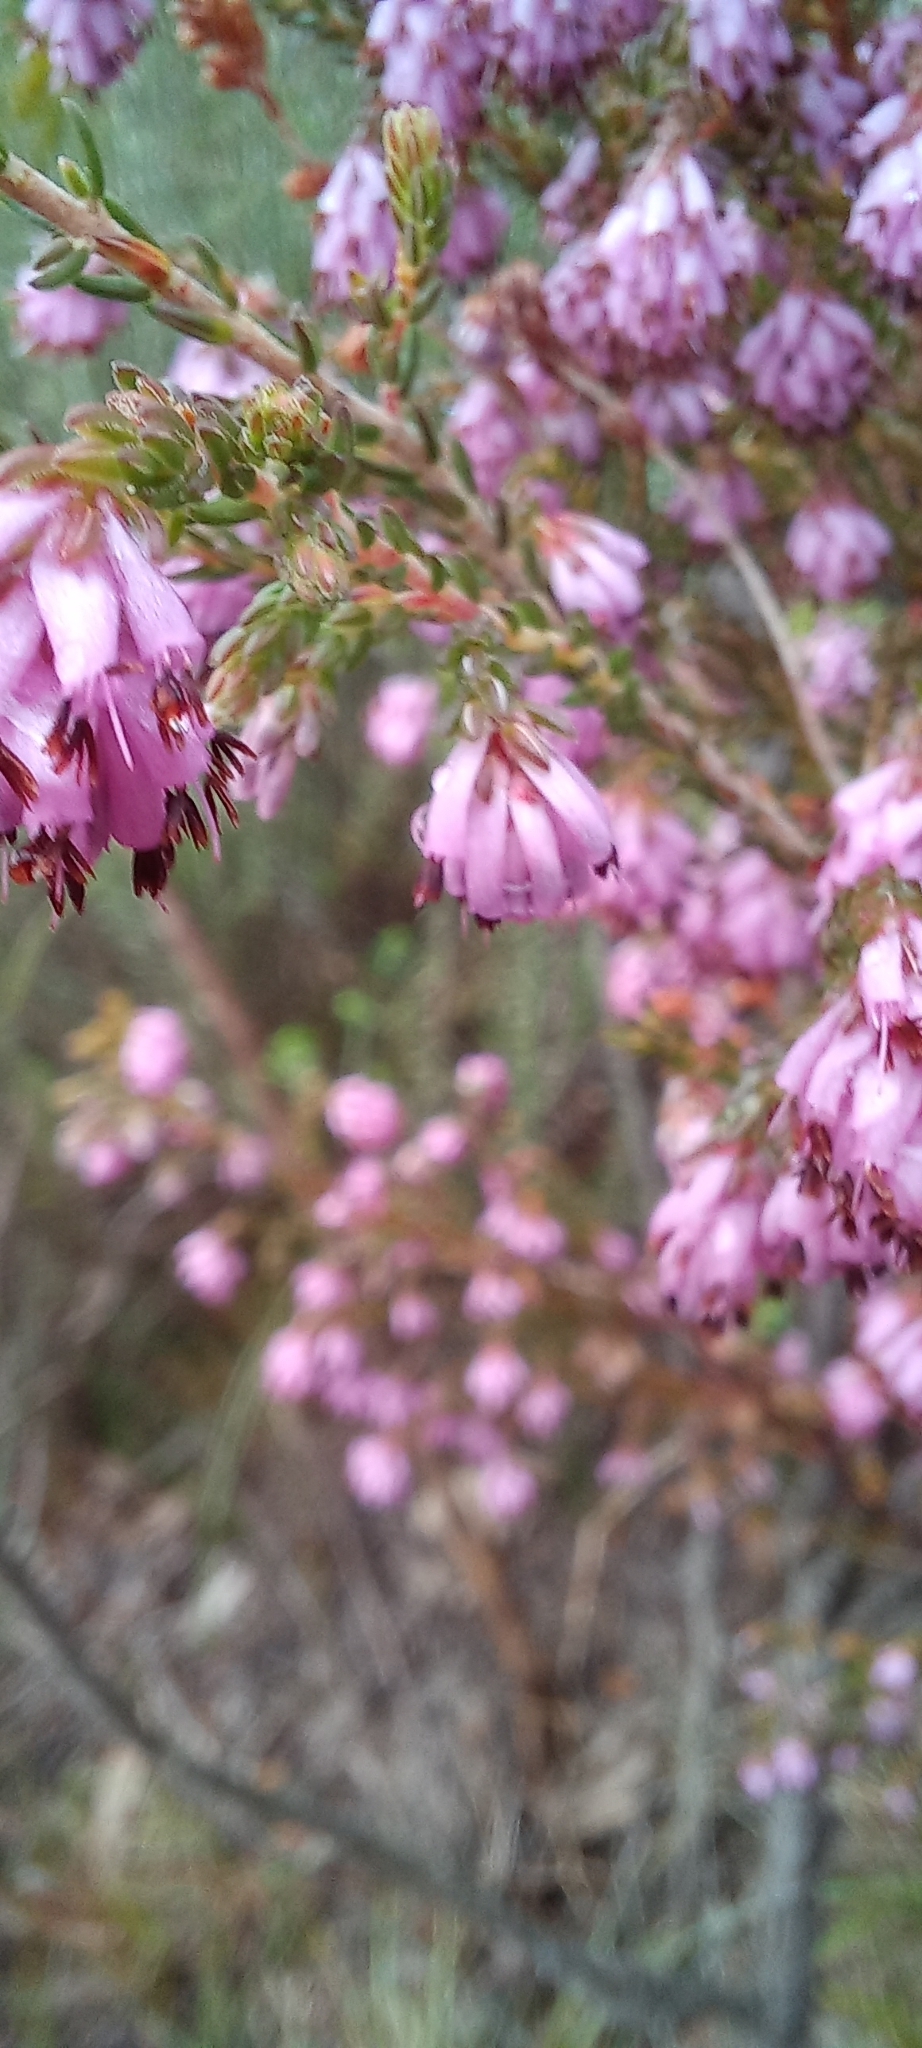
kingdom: Plantae
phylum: Tracheophyta
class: Magnoliopsida
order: Ericales
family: Ericaceae
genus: Erica
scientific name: Erica labialis
